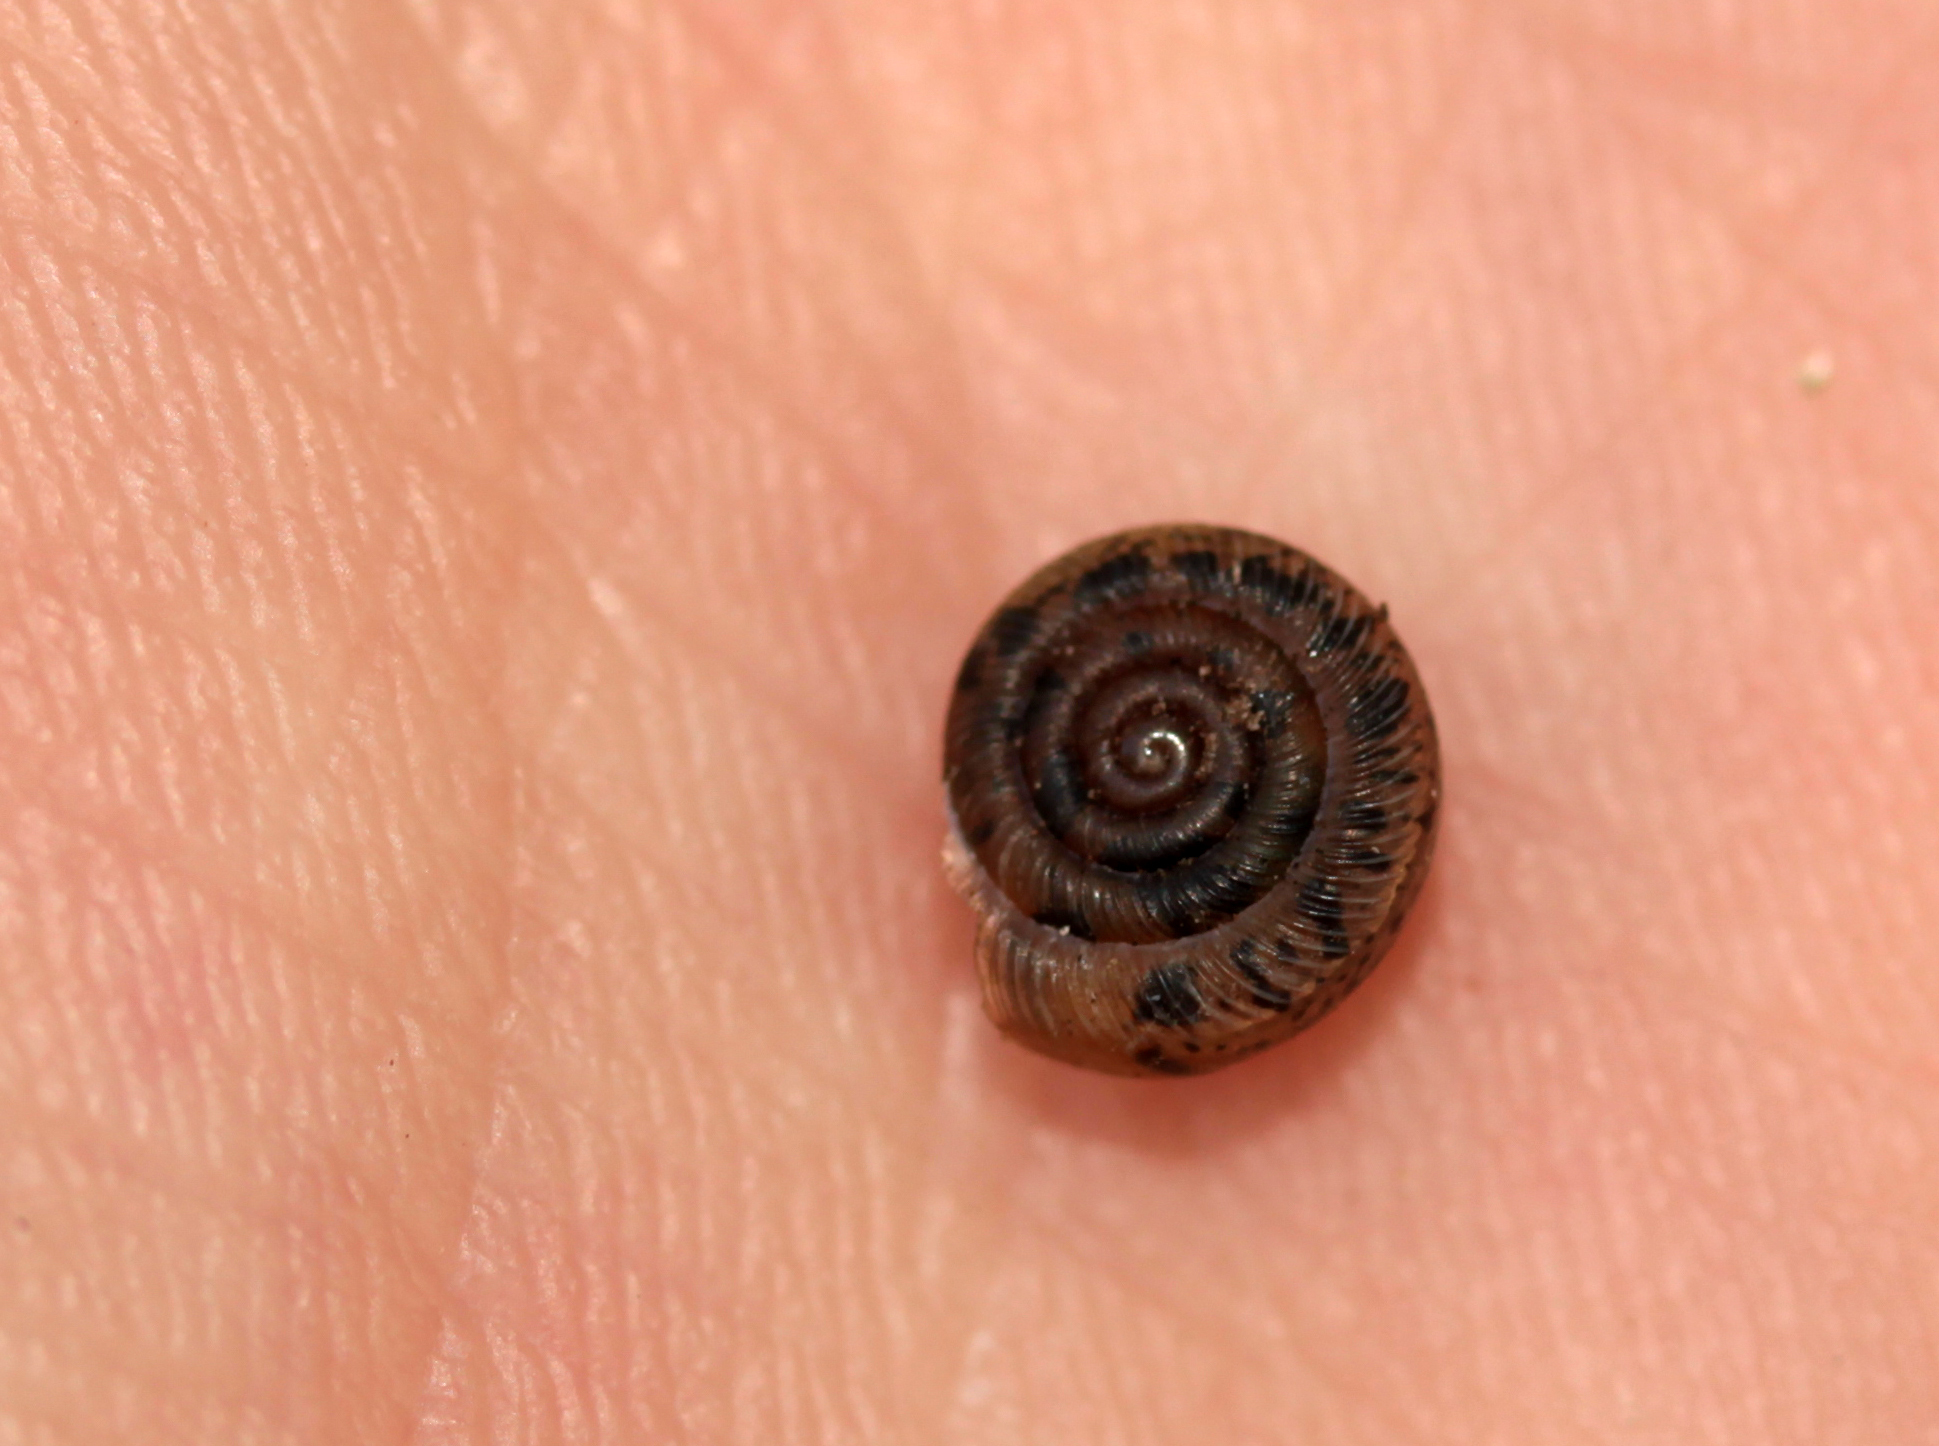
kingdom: Animalia
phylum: Mollusca
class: Gastropoda
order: Stylommatophora
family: Polygyridae
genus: Polygyra
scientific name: Polygyra cereolus
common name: Southern flatcone snail
